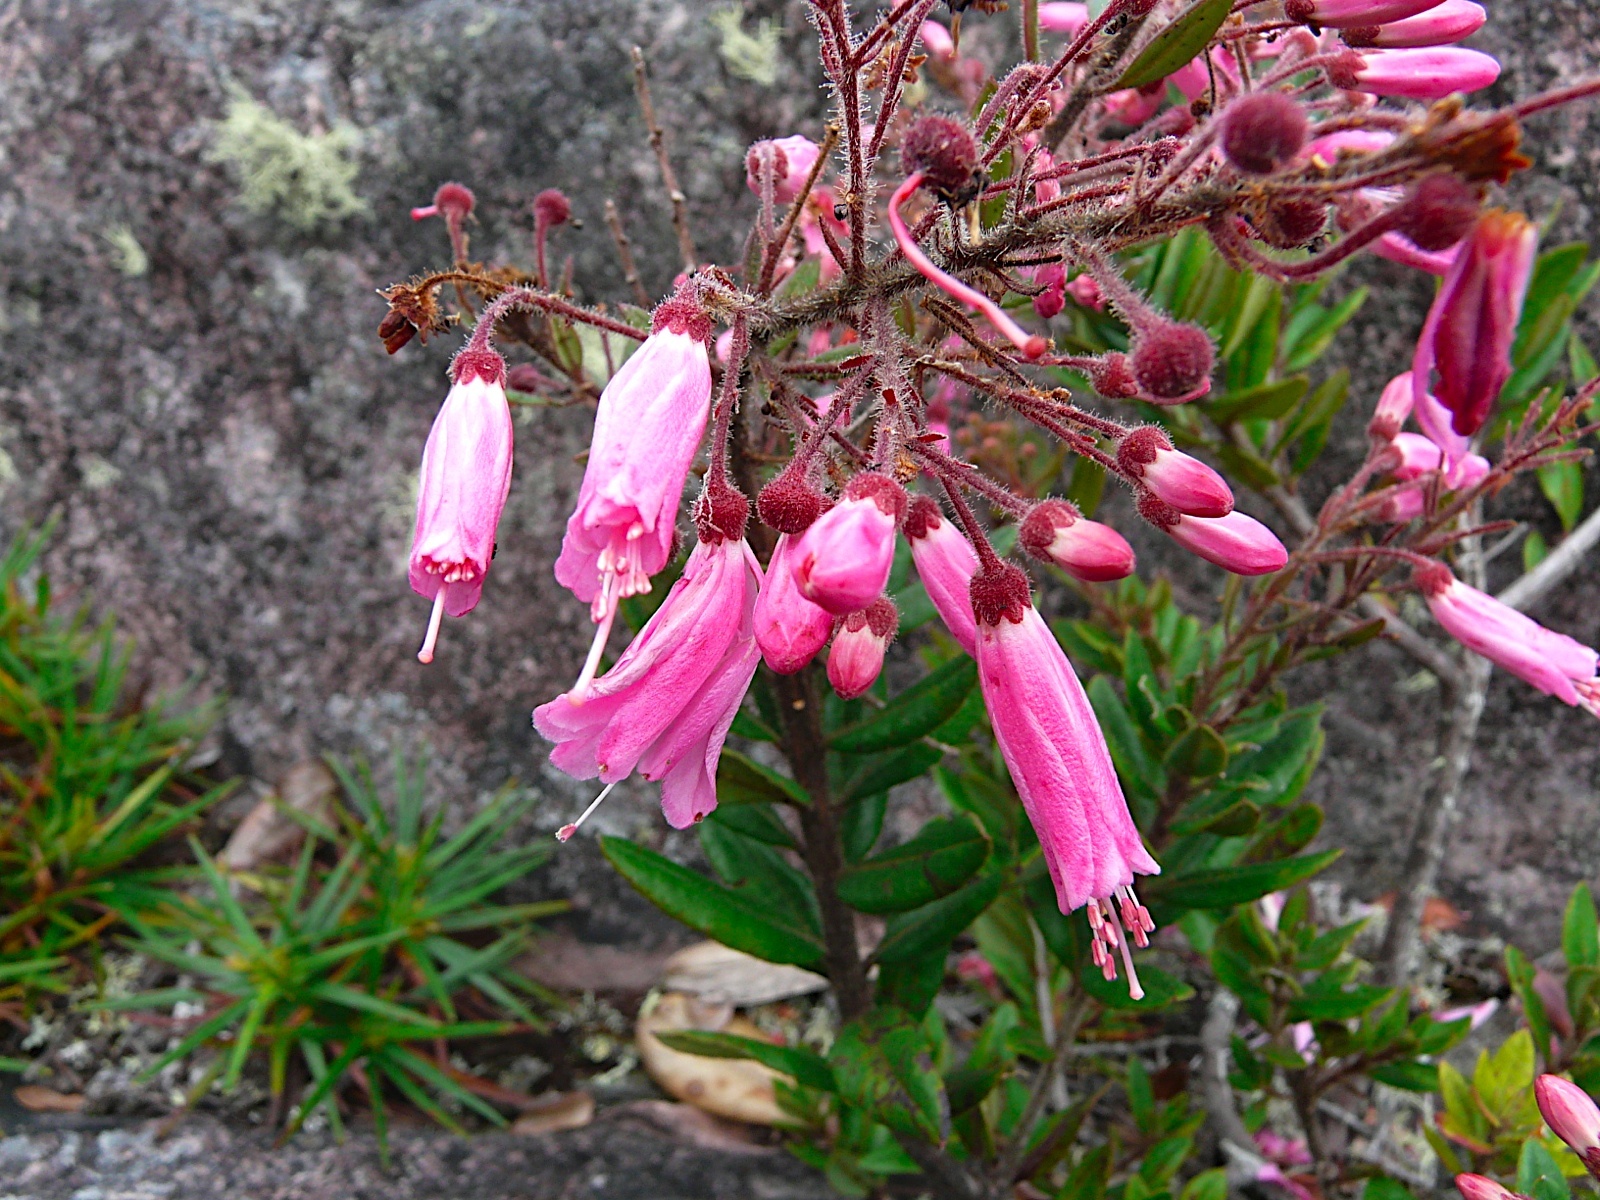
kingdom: Plantae
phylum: Tracheophyta
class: Magnoliopsida
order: Ericales
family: Ericaceae
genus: Bejaria
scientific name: Bejaria sprucei
